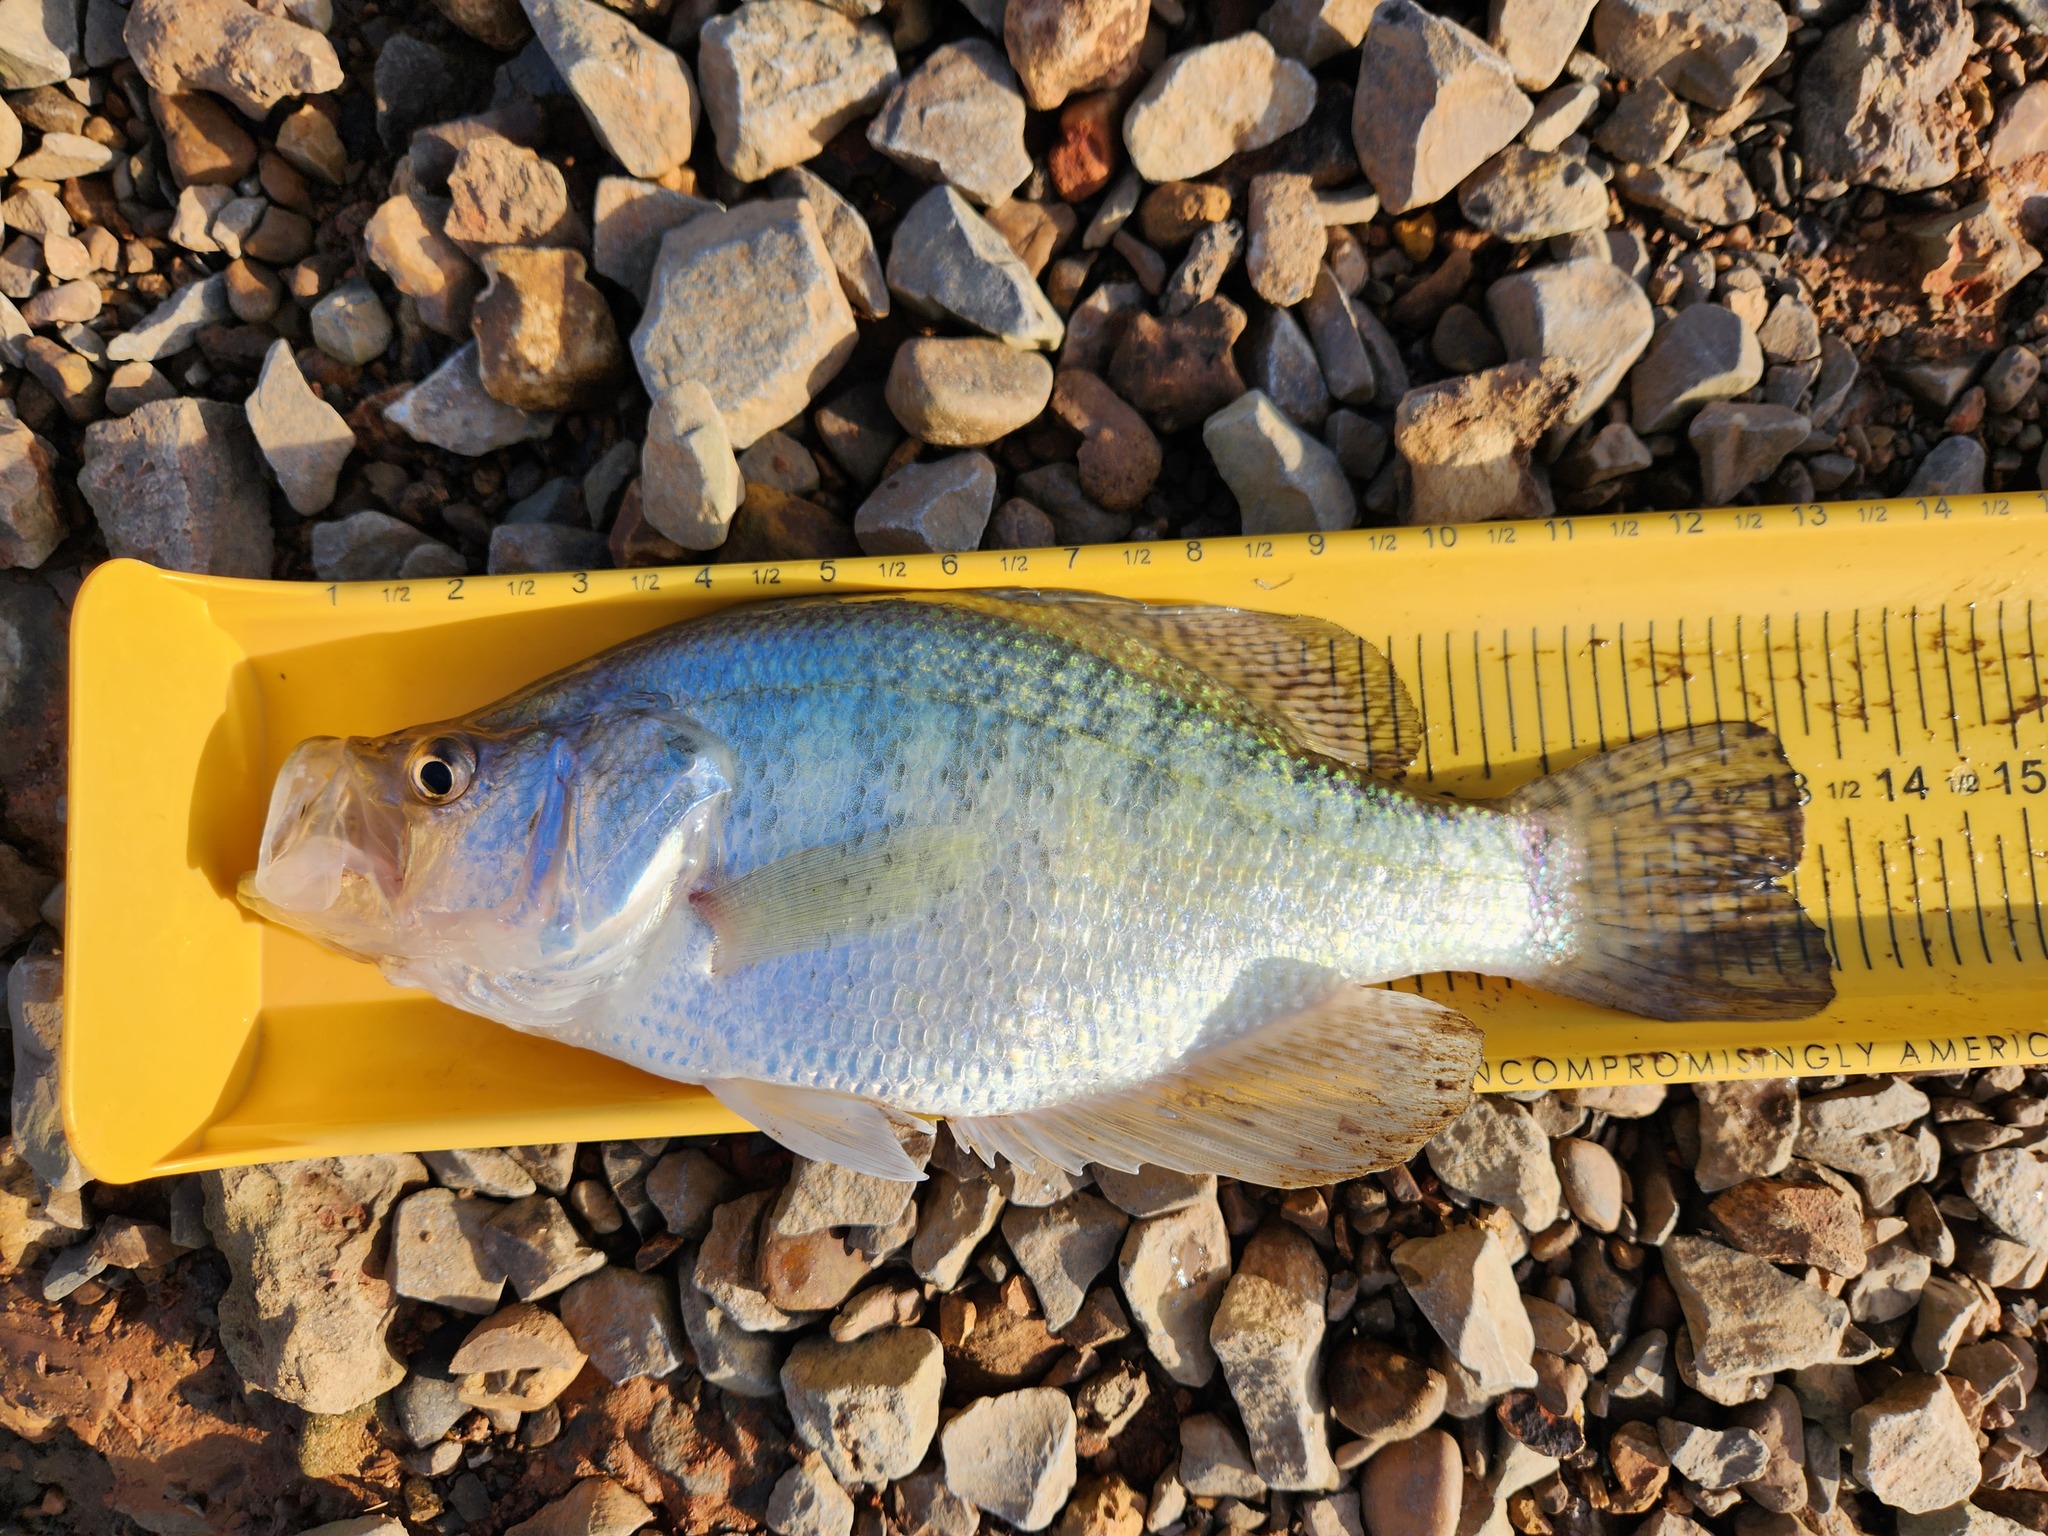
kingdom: Animalia
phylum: Chordata
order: Perciformes
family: Centrarchidae
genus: Pomoxis
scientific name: Pomoxis annularis
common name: White crappie
